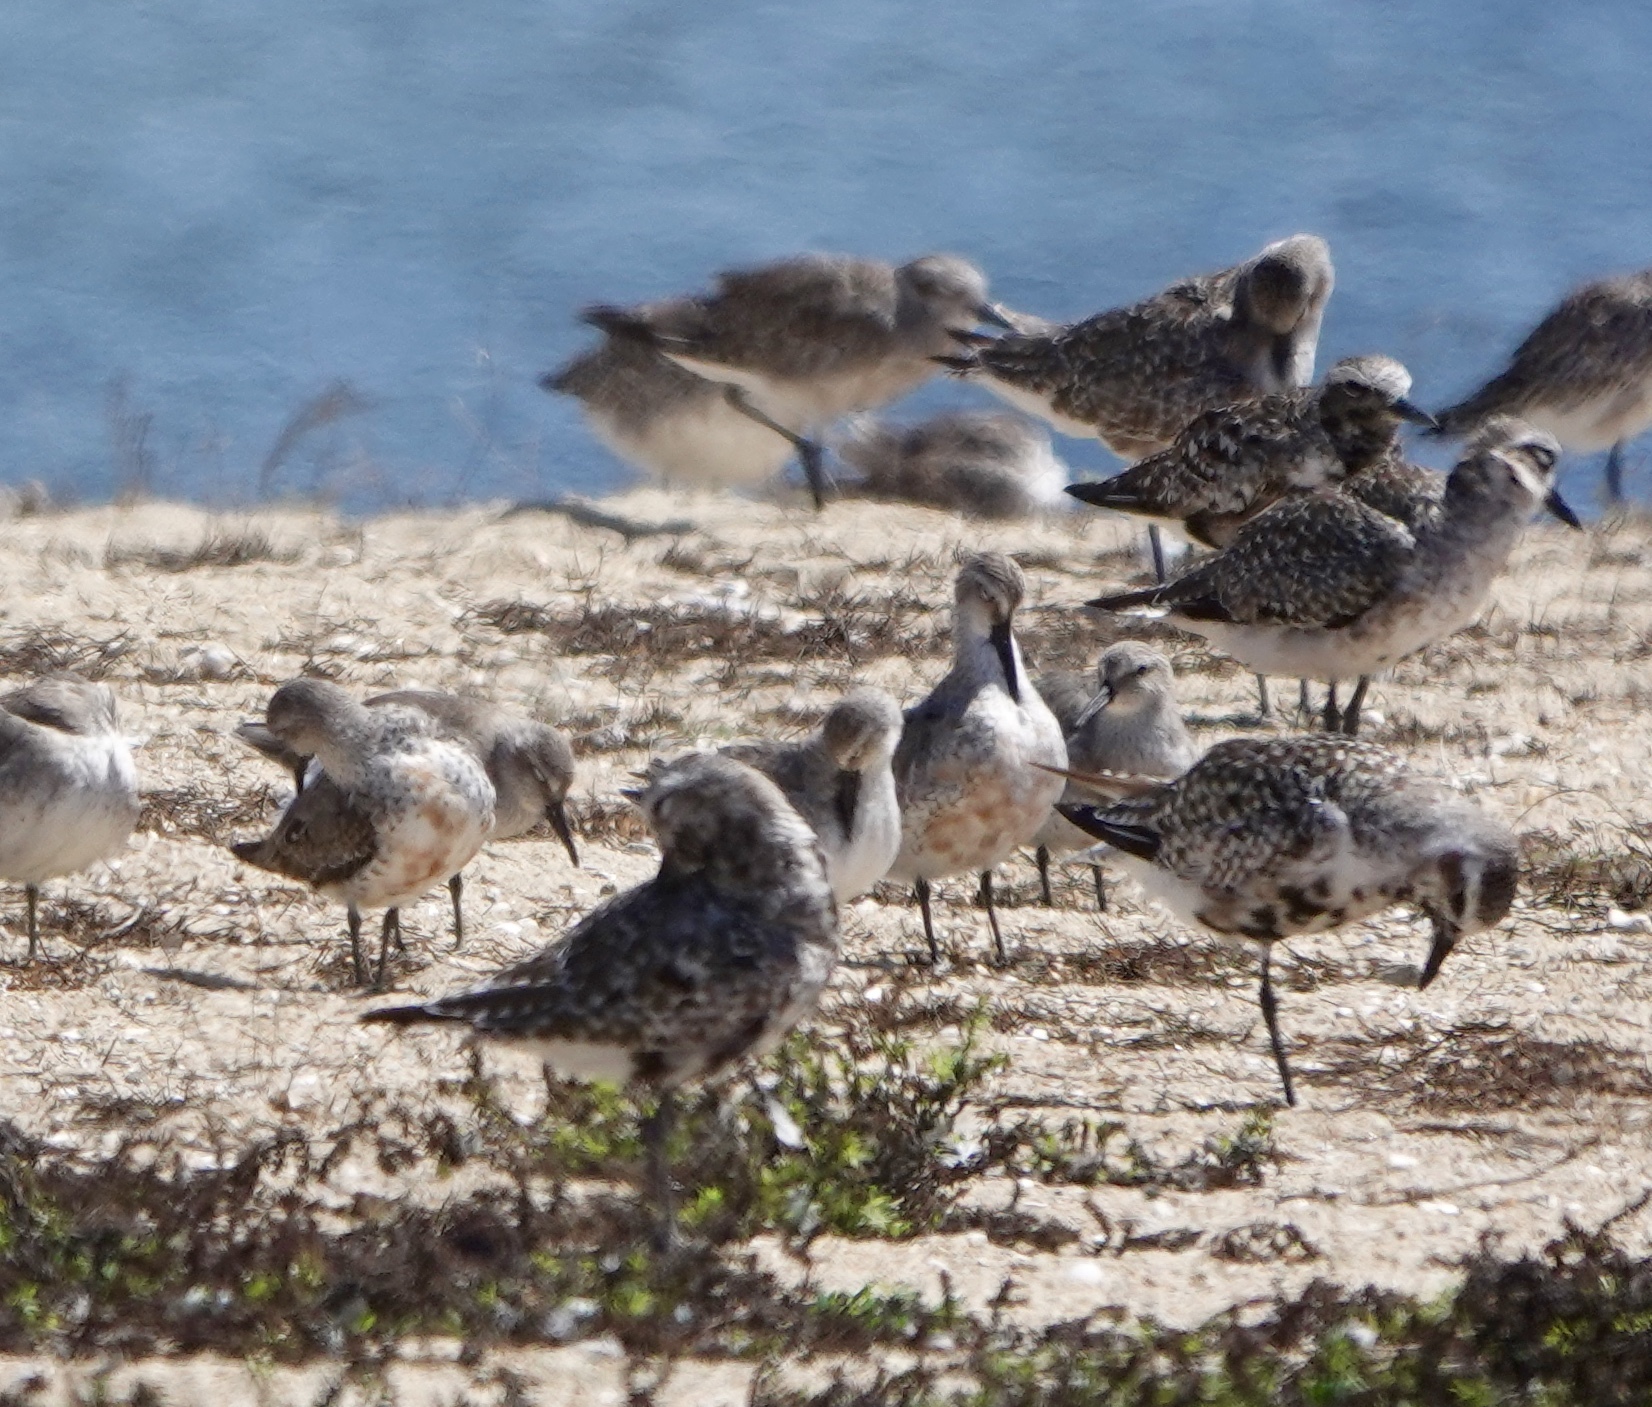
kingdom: Animalia
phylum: Chordata
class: Aves
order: Charadriiformes
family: Scolopacidae
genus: Calidris
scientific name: Calidris canutus
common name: Red knot
